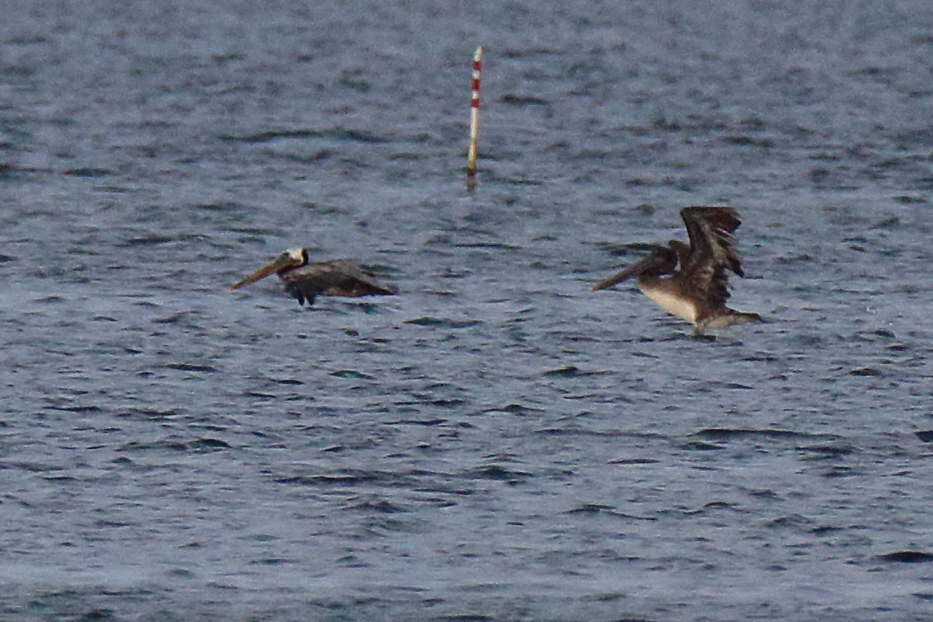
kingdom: Animalia
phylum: Chordata
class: Aves
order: Pelecaniformes
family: Pelecanidae
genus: Pelecanus
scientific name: Pelecanus occidentalis
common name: Brown pelican
